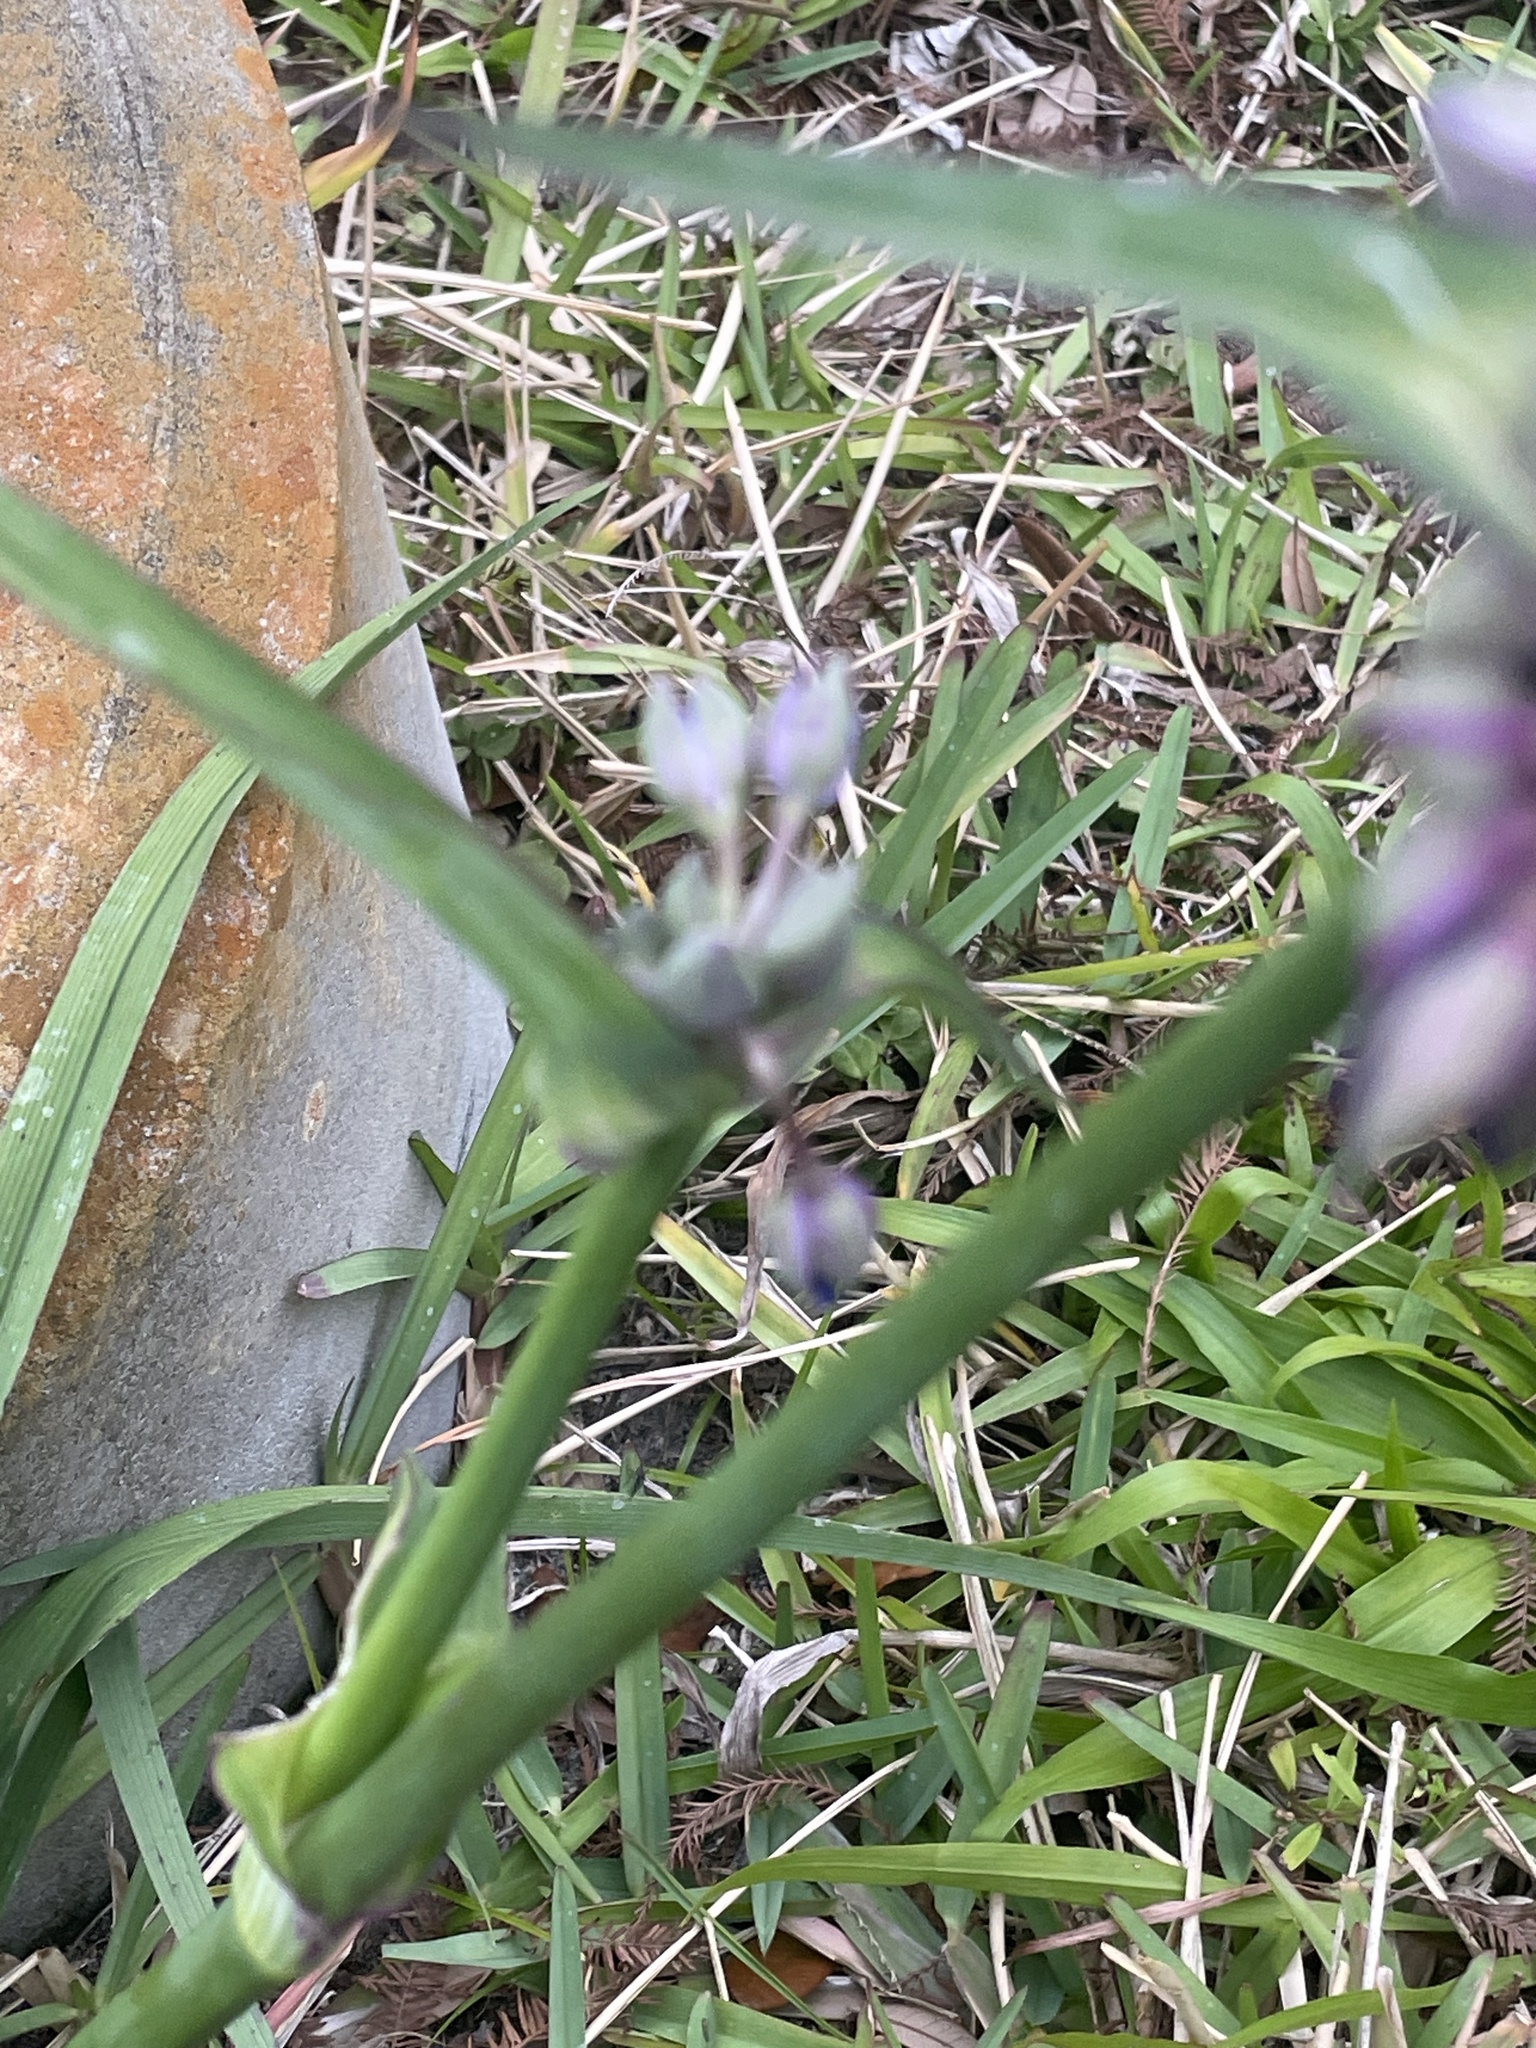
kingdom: Plantae
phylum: Tracheophyta
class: Liliopsida
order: Commelinales
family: Commelinaceae
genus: Tradescantia
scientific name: Tradescantia ohiensis
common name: Ohio spiderwort
